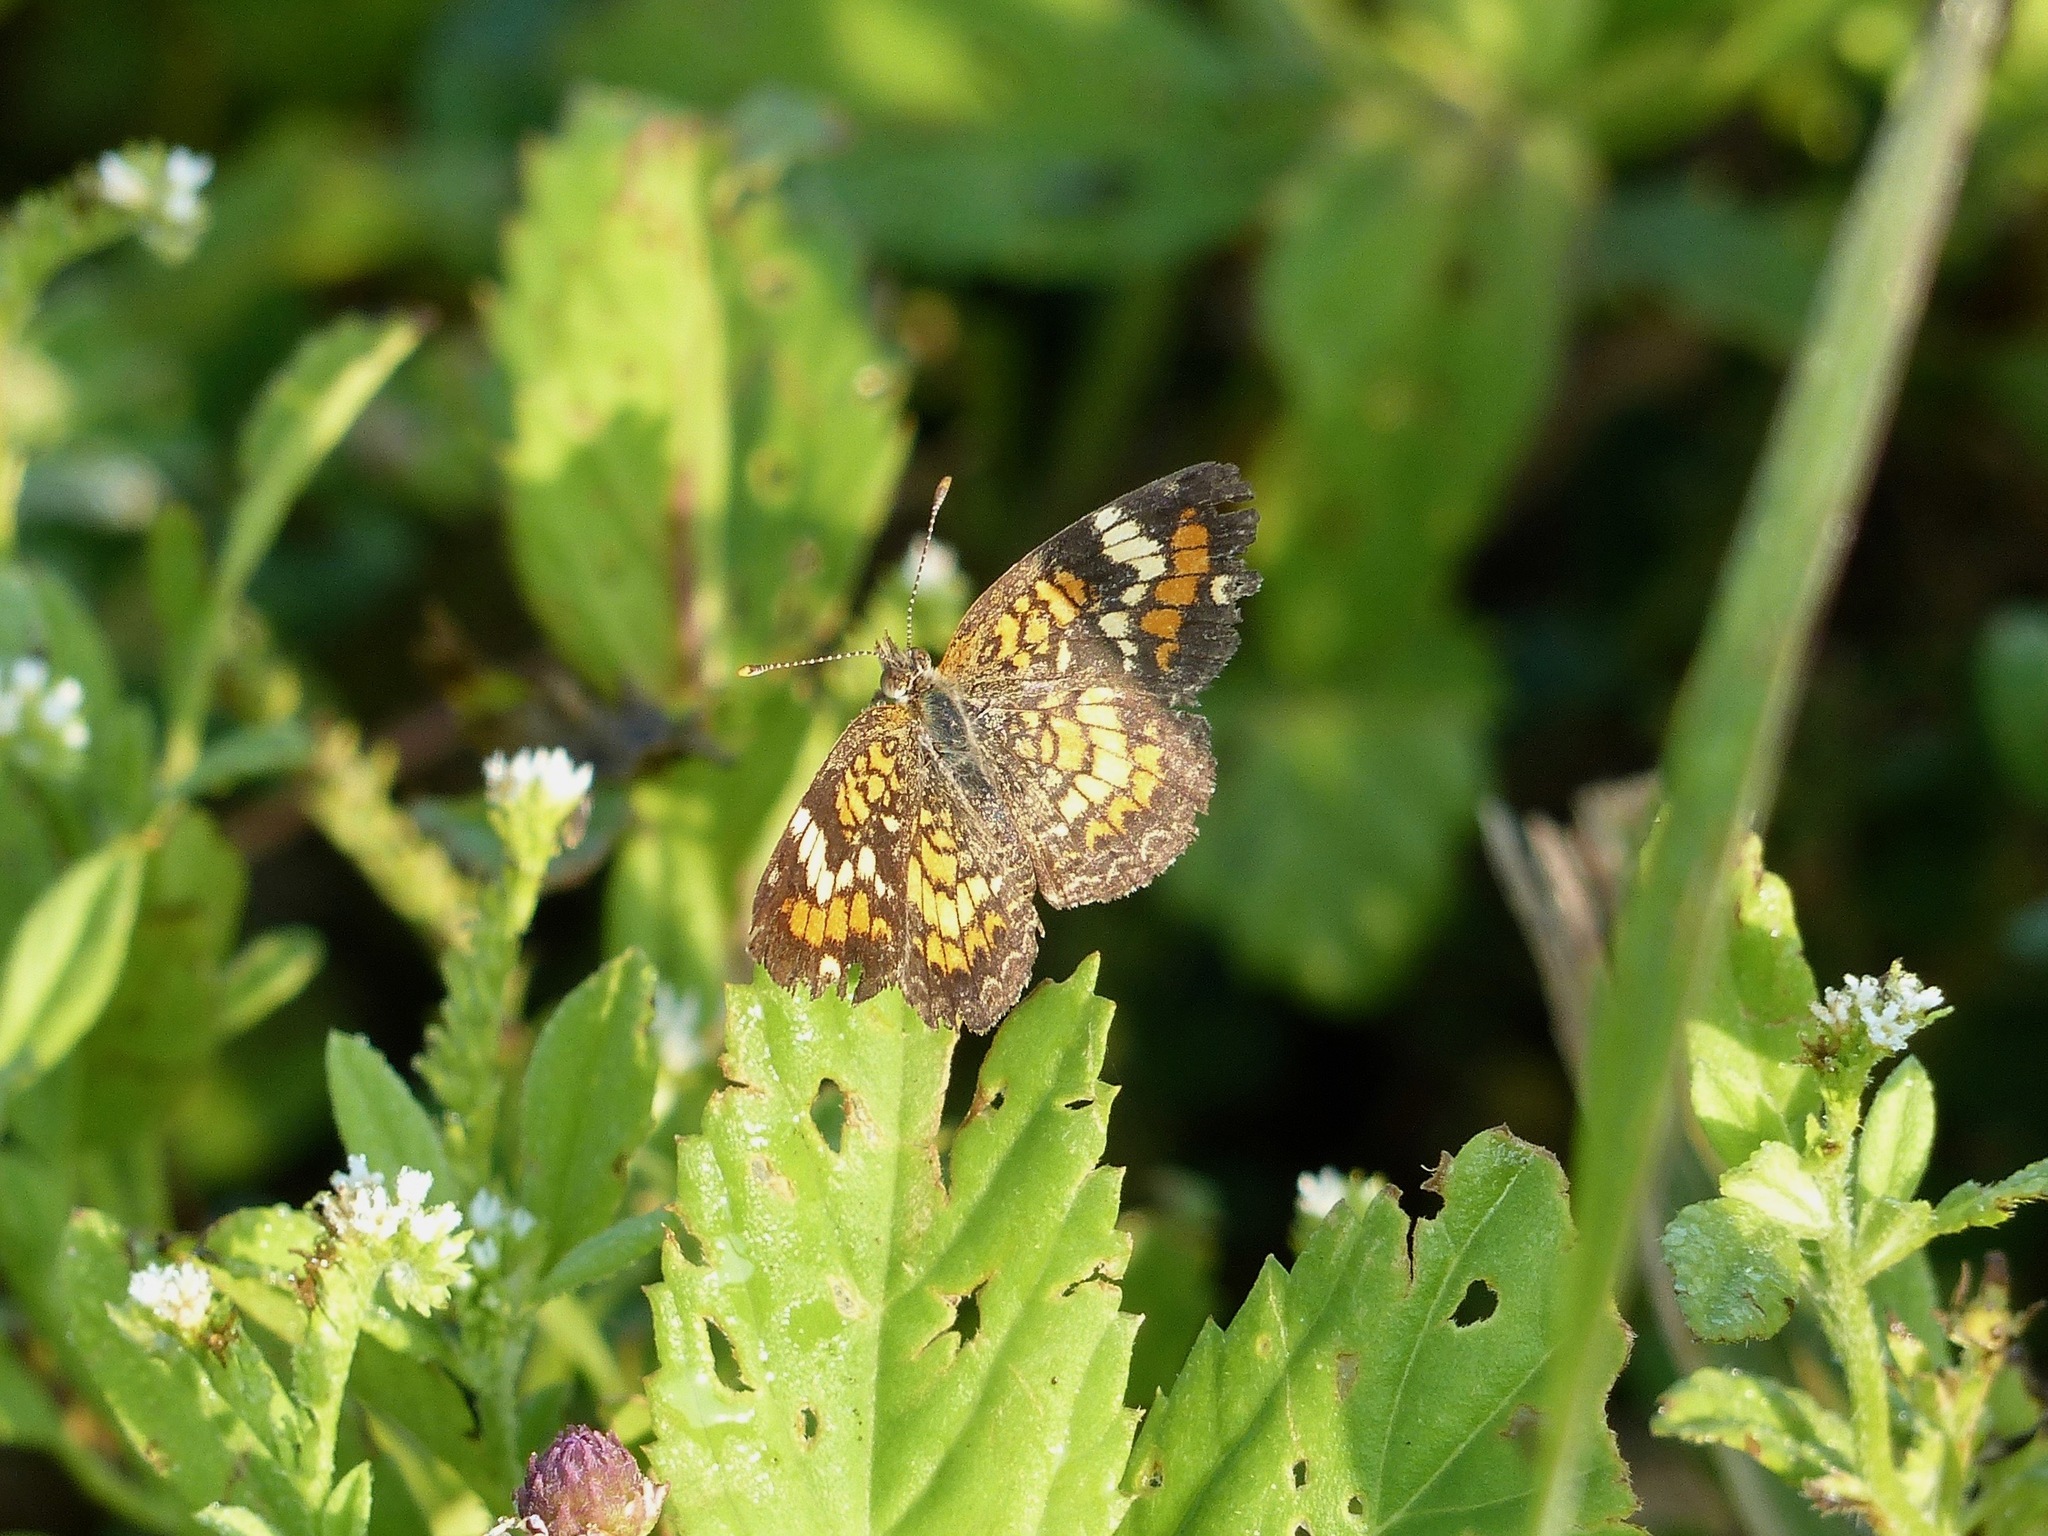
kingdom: Animalia
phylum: Arthropoda
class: Insecta
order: Lepidoptera
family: Nymphalidae
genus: Phyciodes
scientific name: Phyciodes phaon
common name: Phaon crescent
